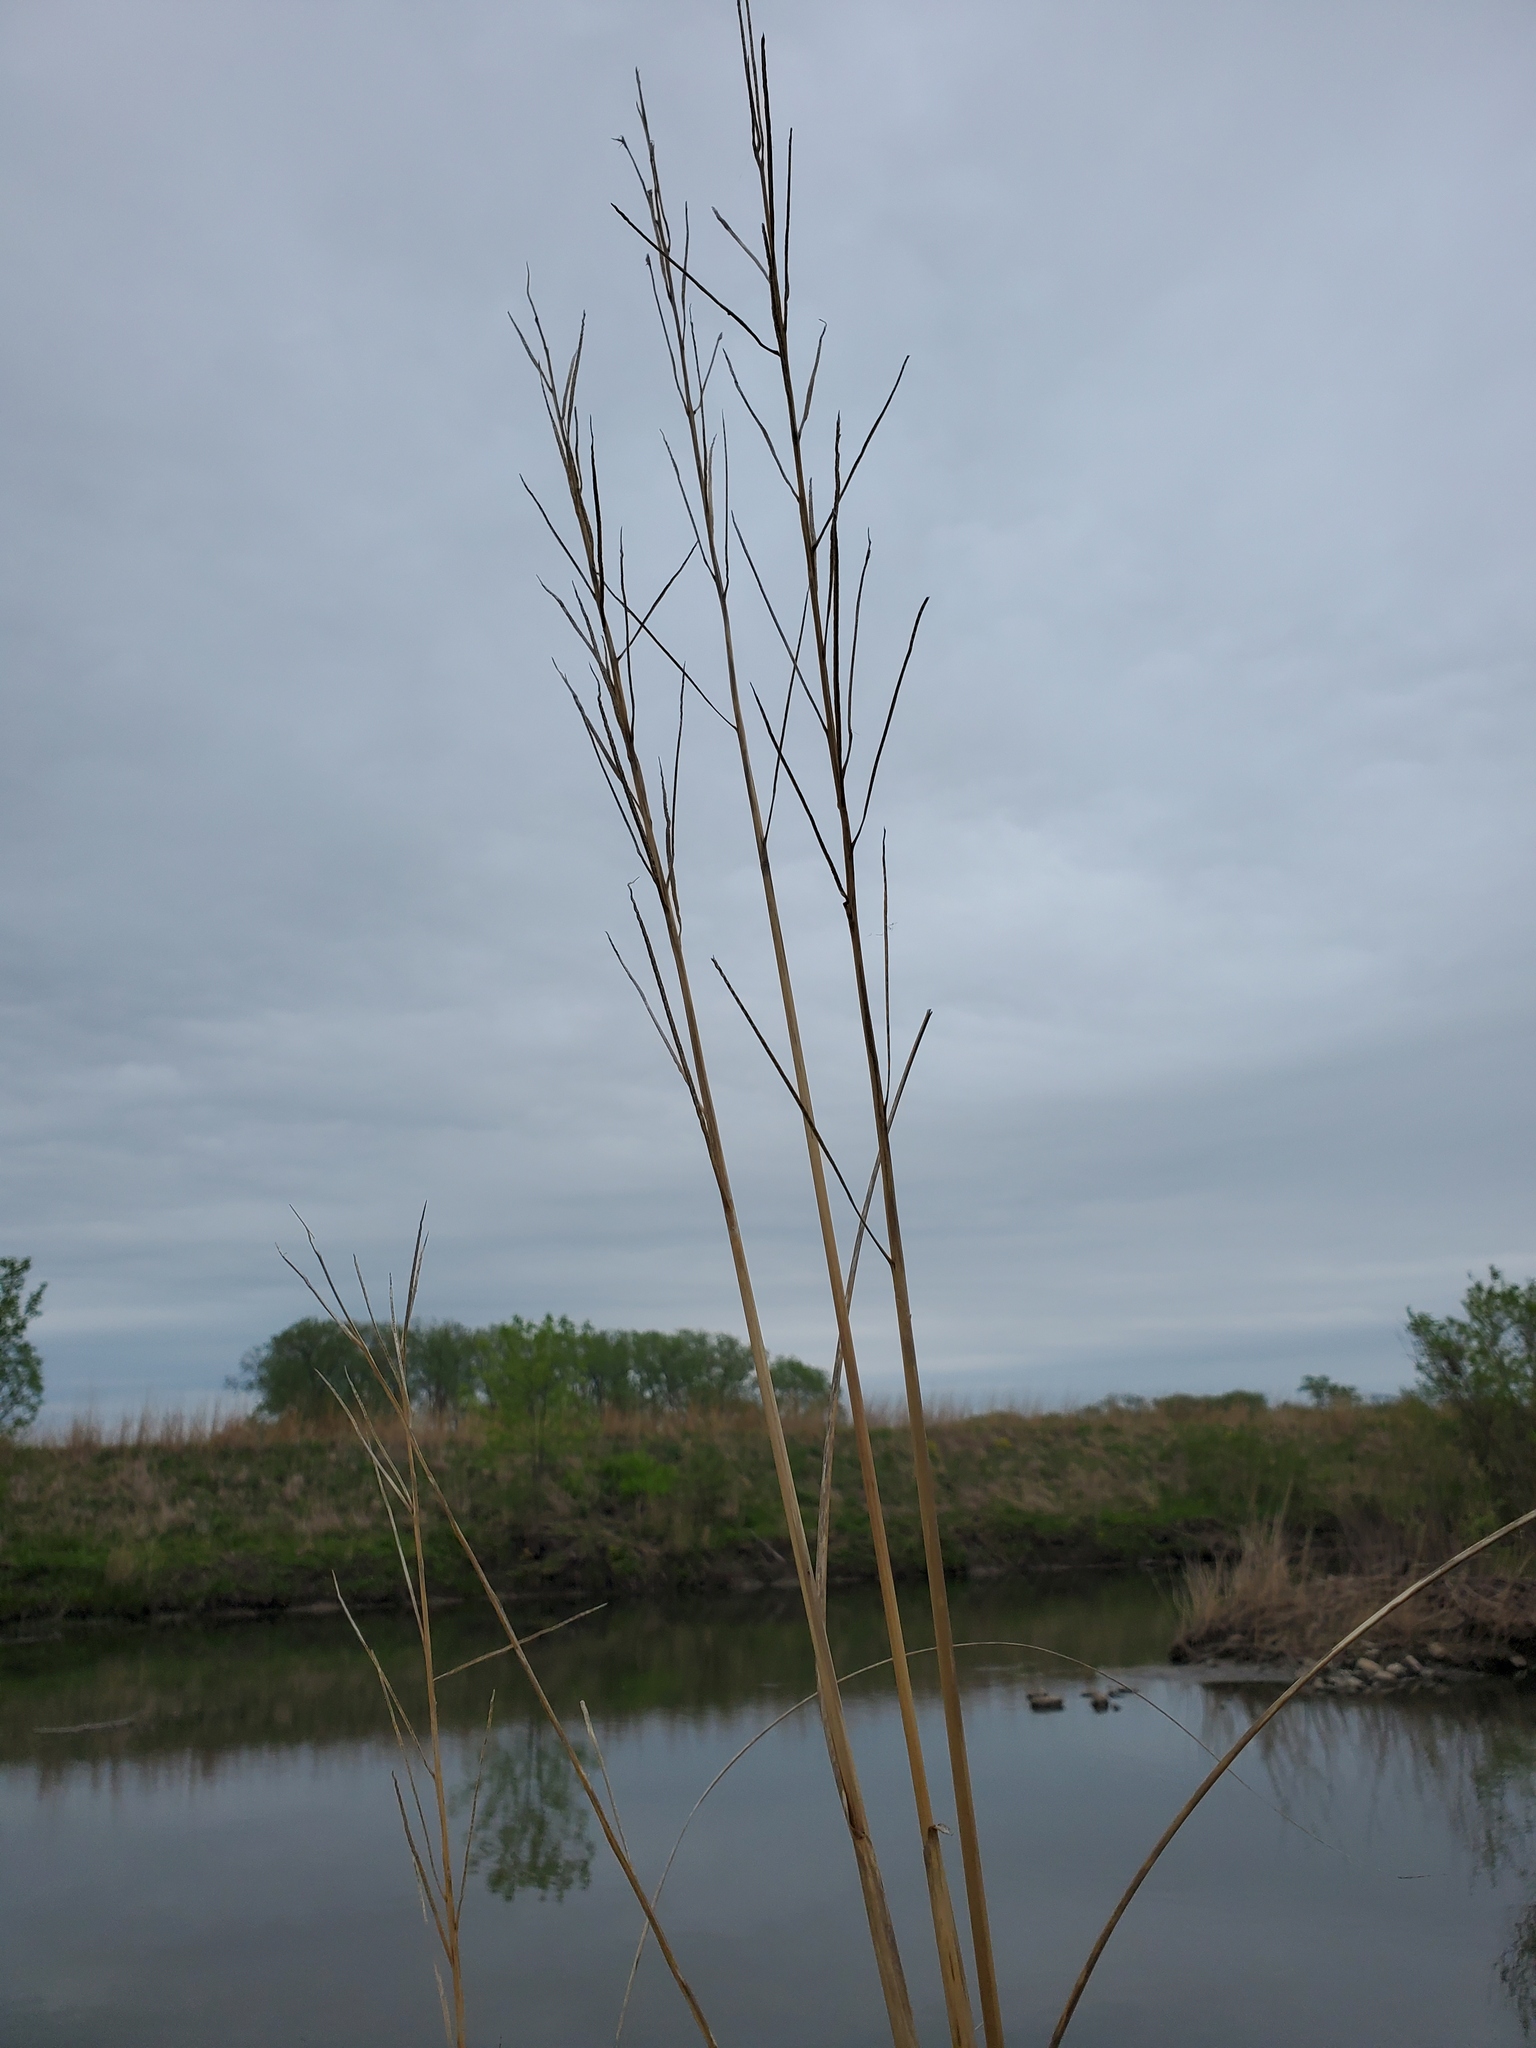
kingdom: Plantae
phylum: Tracheophyta
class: Liliopsida
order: Poales
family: Poaceae
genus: Sporobolus
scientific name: Sporobolus michauxianus
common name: Freshwater cordgrass
